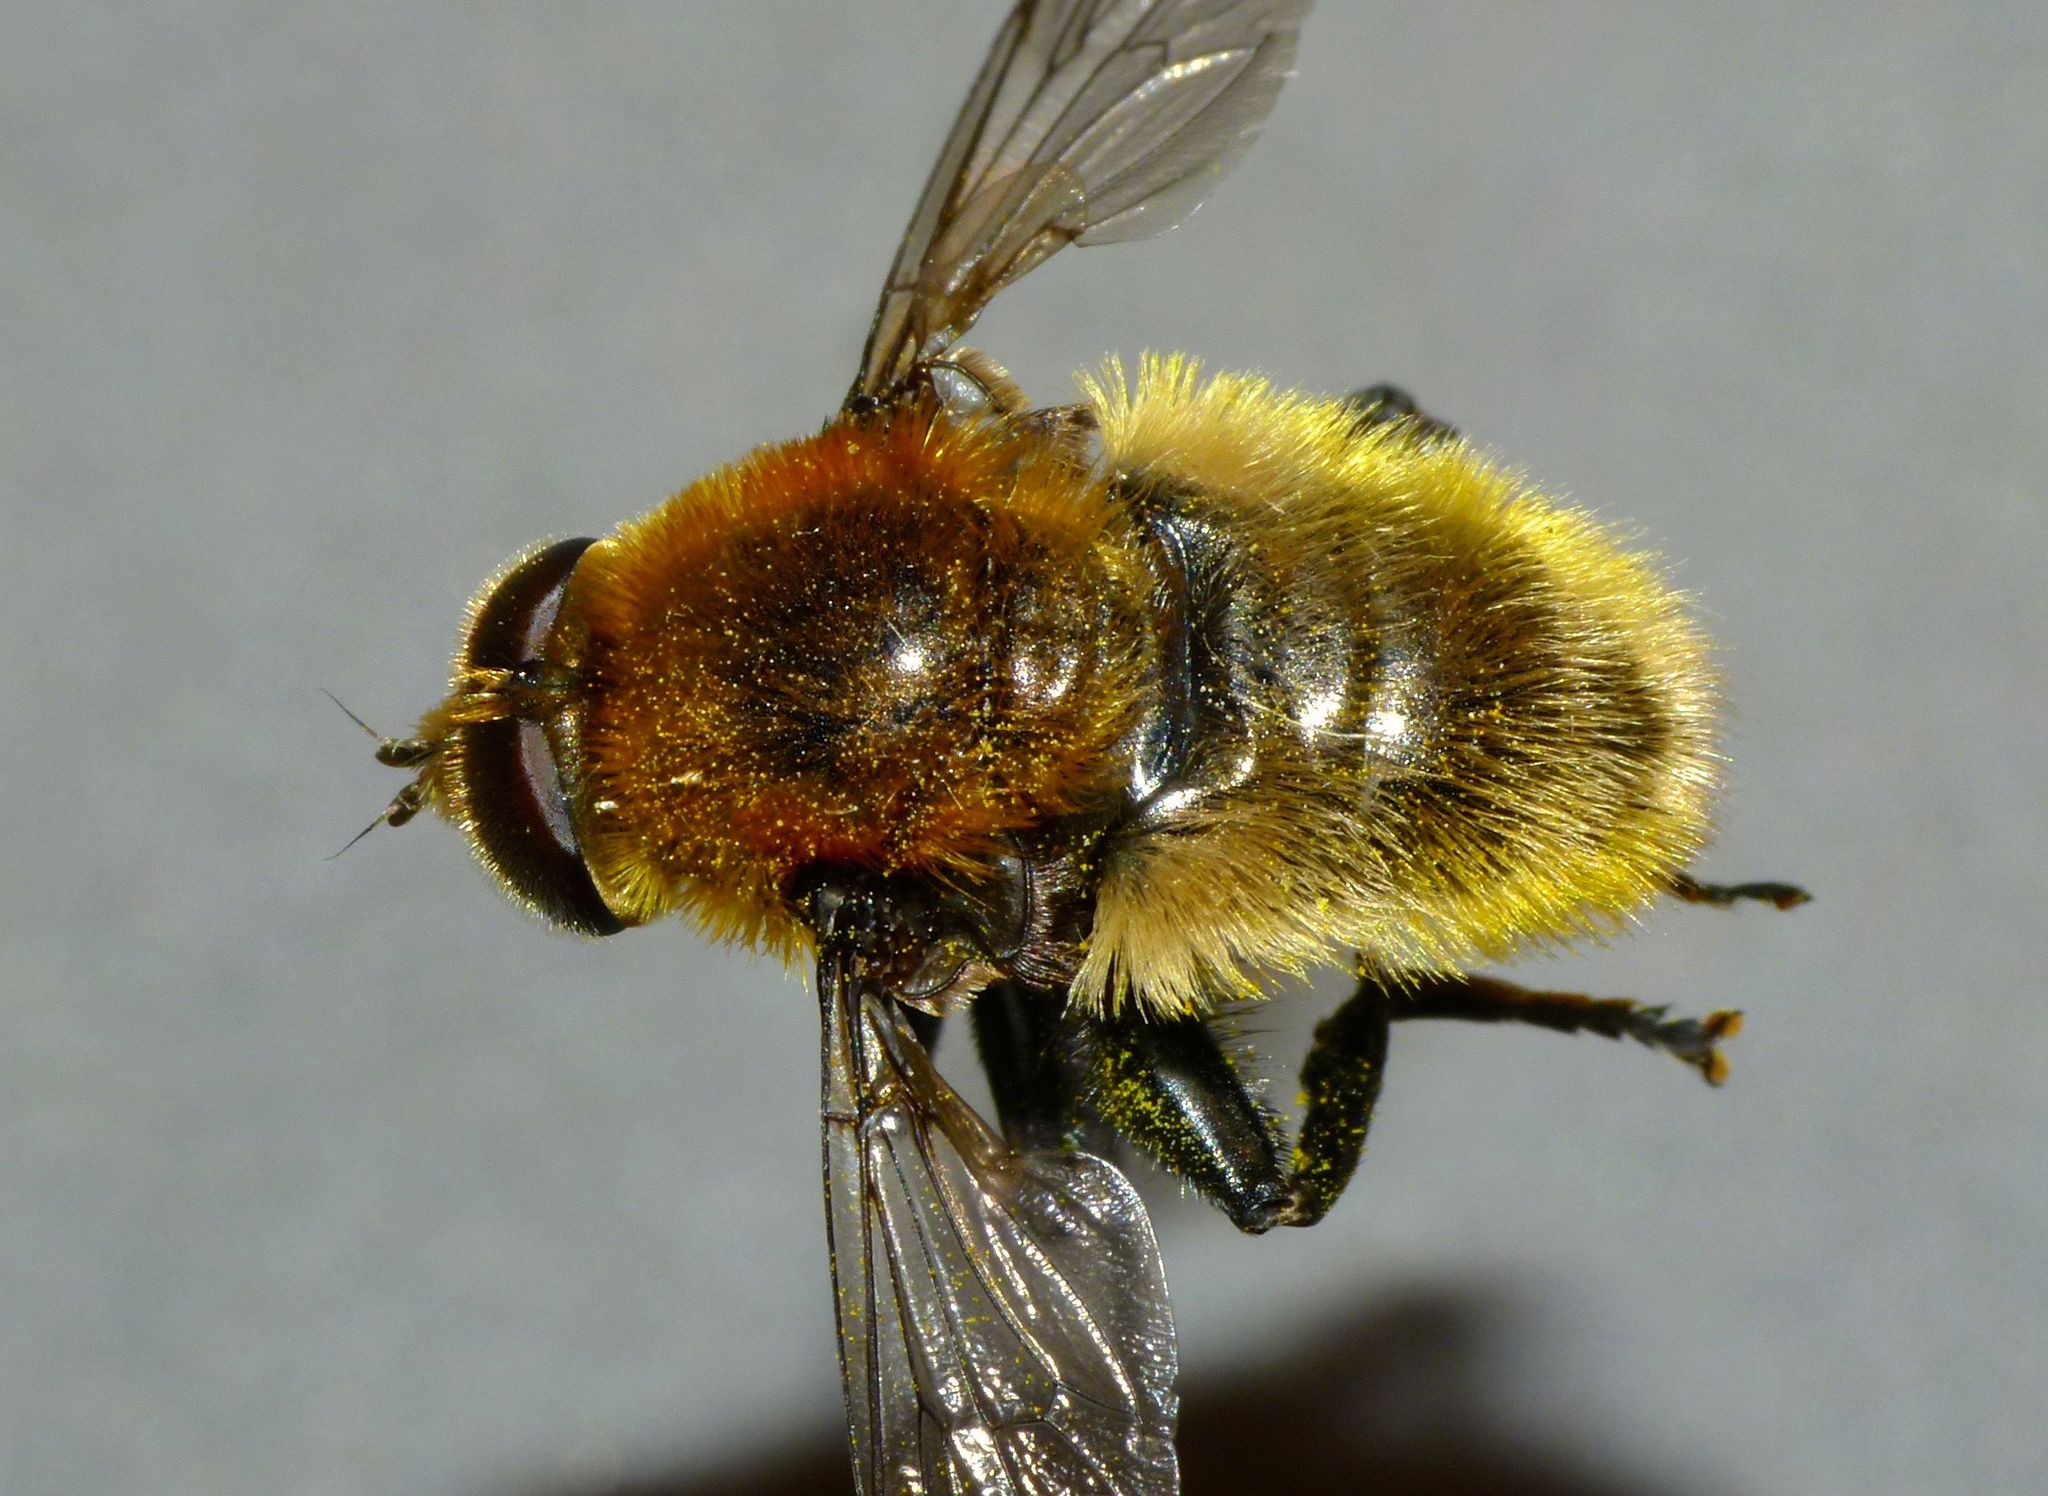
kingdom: Animalia
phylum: Arthropoda
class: Insecta
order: Diptera
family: Syrphidae
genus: Merodon
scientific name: Merodon equestris
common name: Greater bulb-fly
